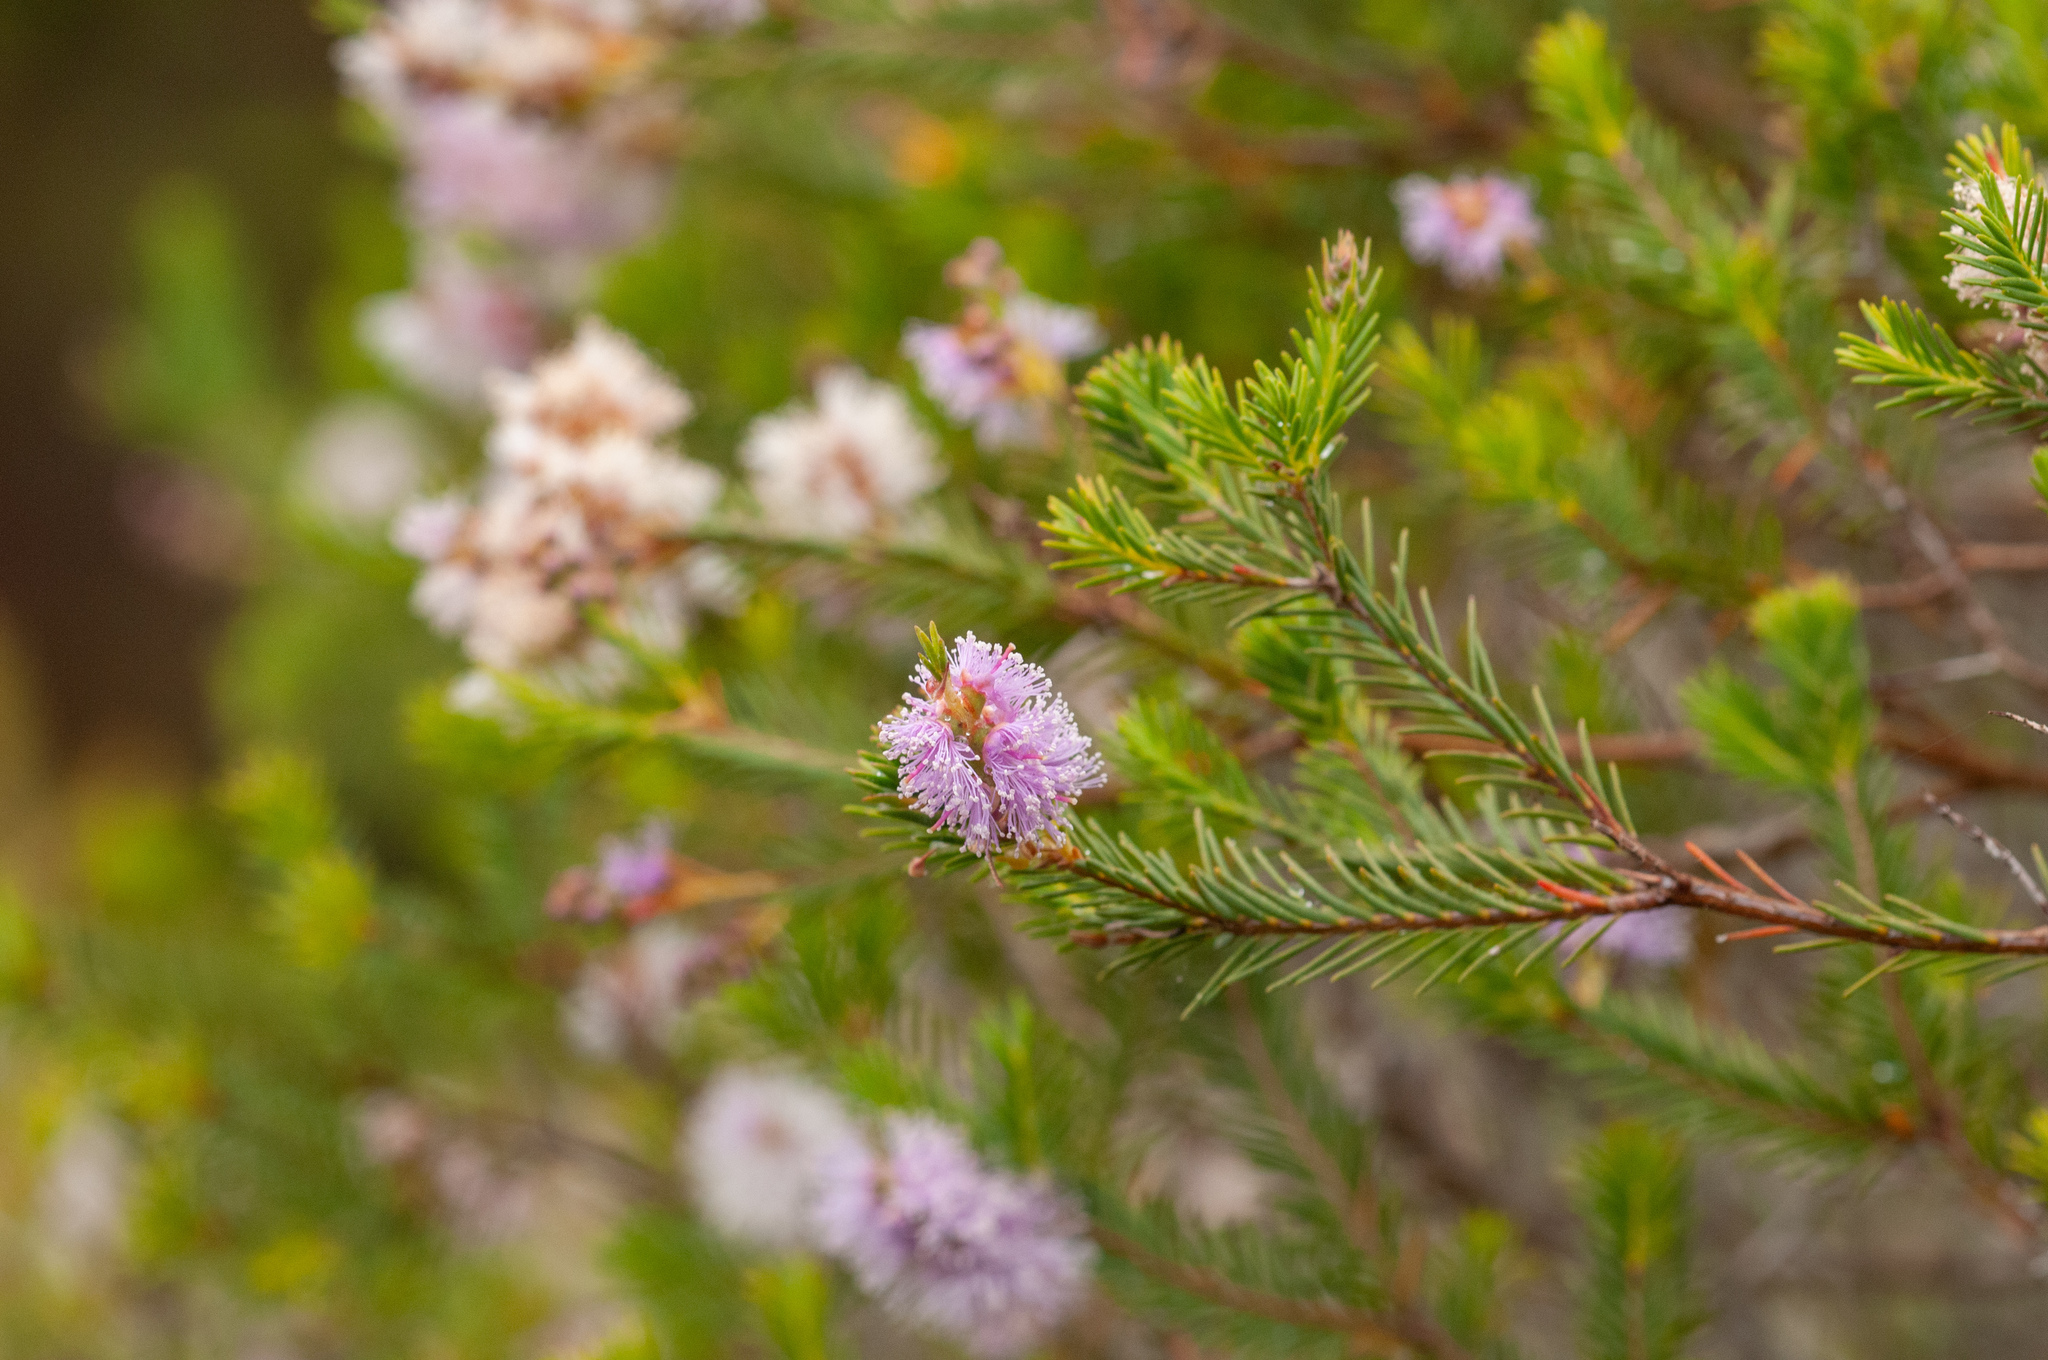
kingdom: Plantae
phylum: Tracheophyta
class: Magnoliopsida
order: Myrtales
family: Myrtaceae
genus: Melaleuca
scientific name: Melaleuca decussata
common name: Cross-leaf honey myrtle
